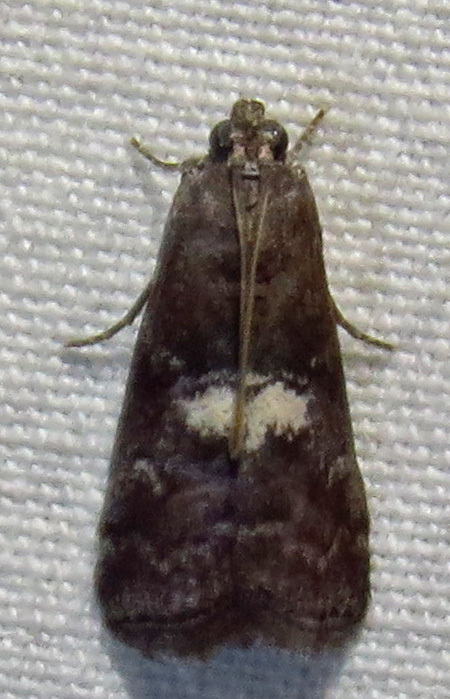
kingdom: Animalia
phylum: Arthropoda
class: Insecta
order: Lepidoptera
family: Pyralidae
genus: Salebriaria
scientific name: Salebriaria engeli
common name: Engel's salebriaria moth
